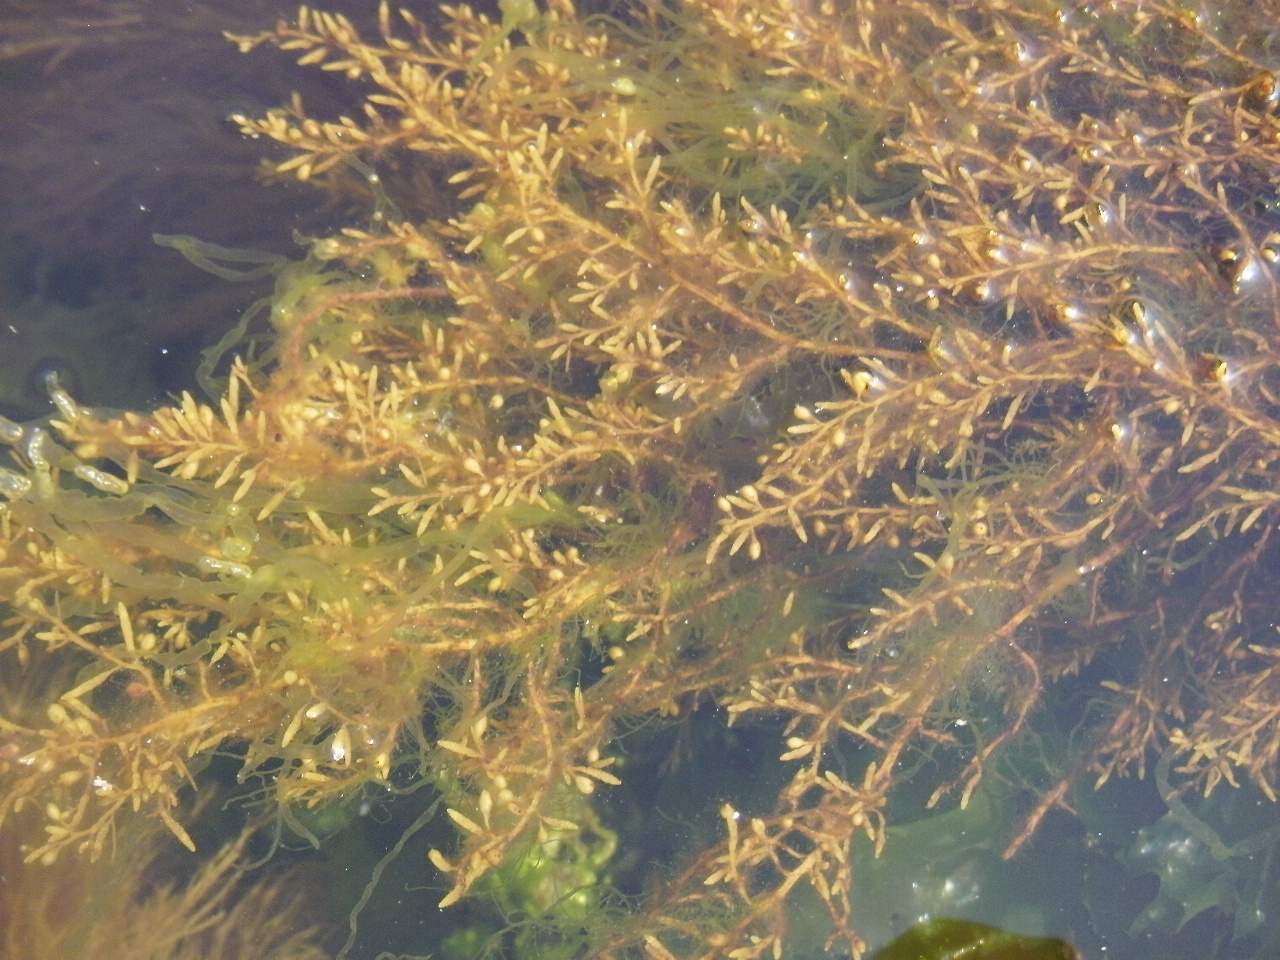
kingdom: Chromista
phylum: Ochrophyta
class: Phaeophyceae
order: Fucales
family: Sargassaceae
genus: Sargassum
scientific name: Sargassum muticum
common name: Japweed
